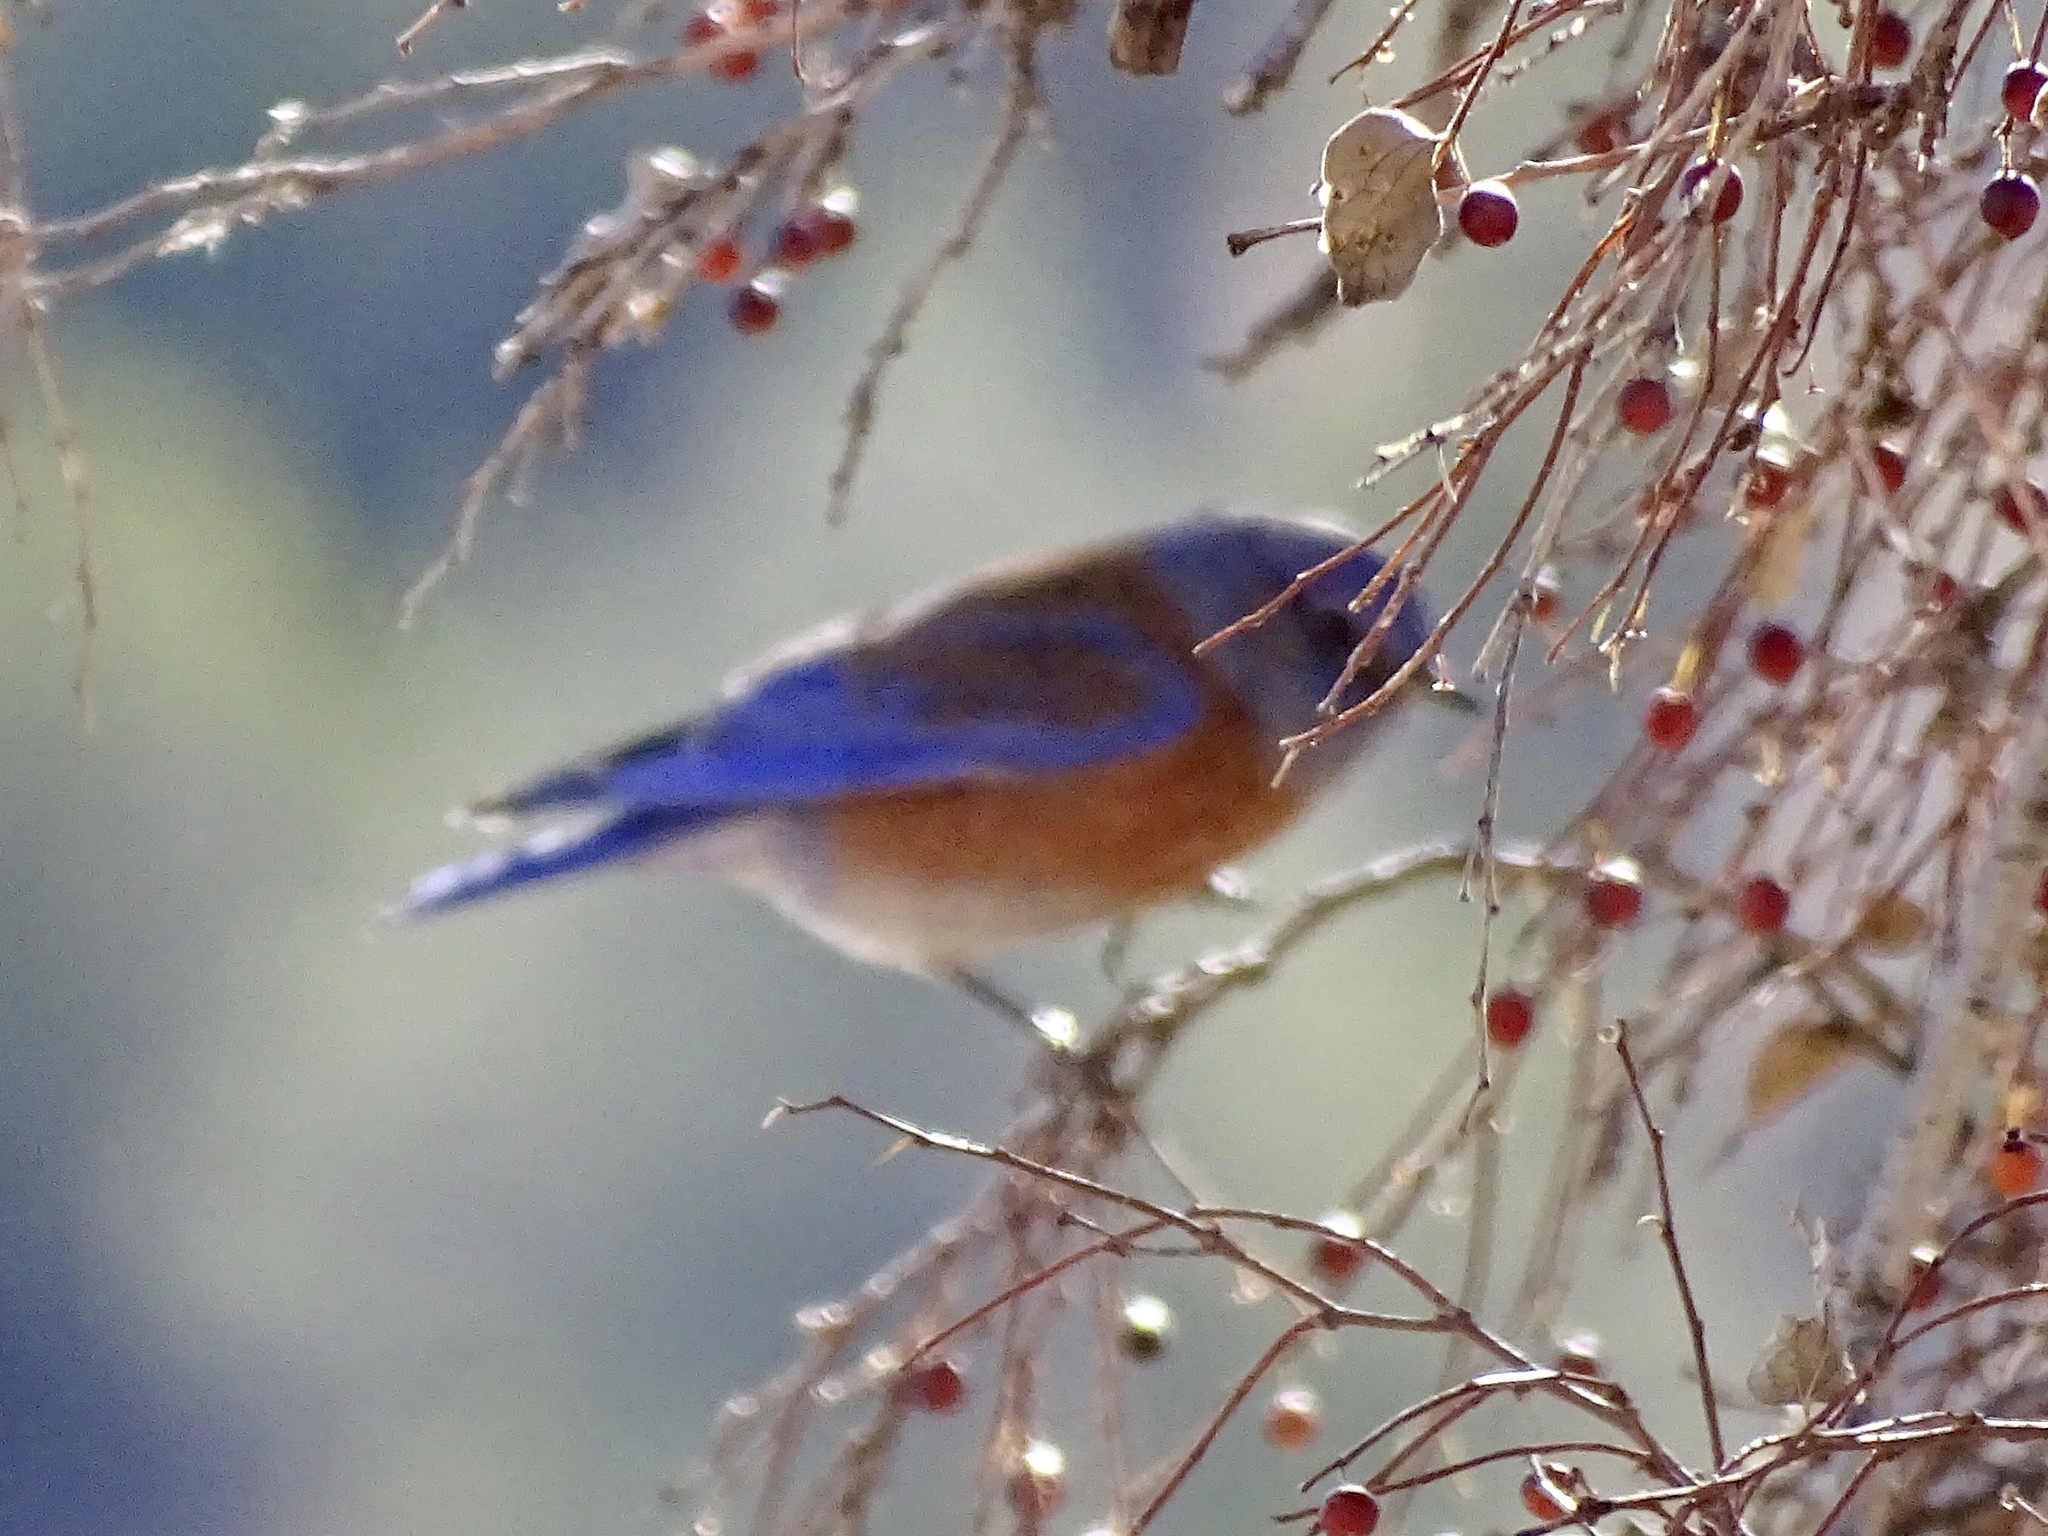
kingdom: Animalia
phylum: Chordata
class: Aves
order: Passeriformes
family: Turdidae
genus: Sialia
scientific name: Sialia mexicana
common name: Western bluebird
